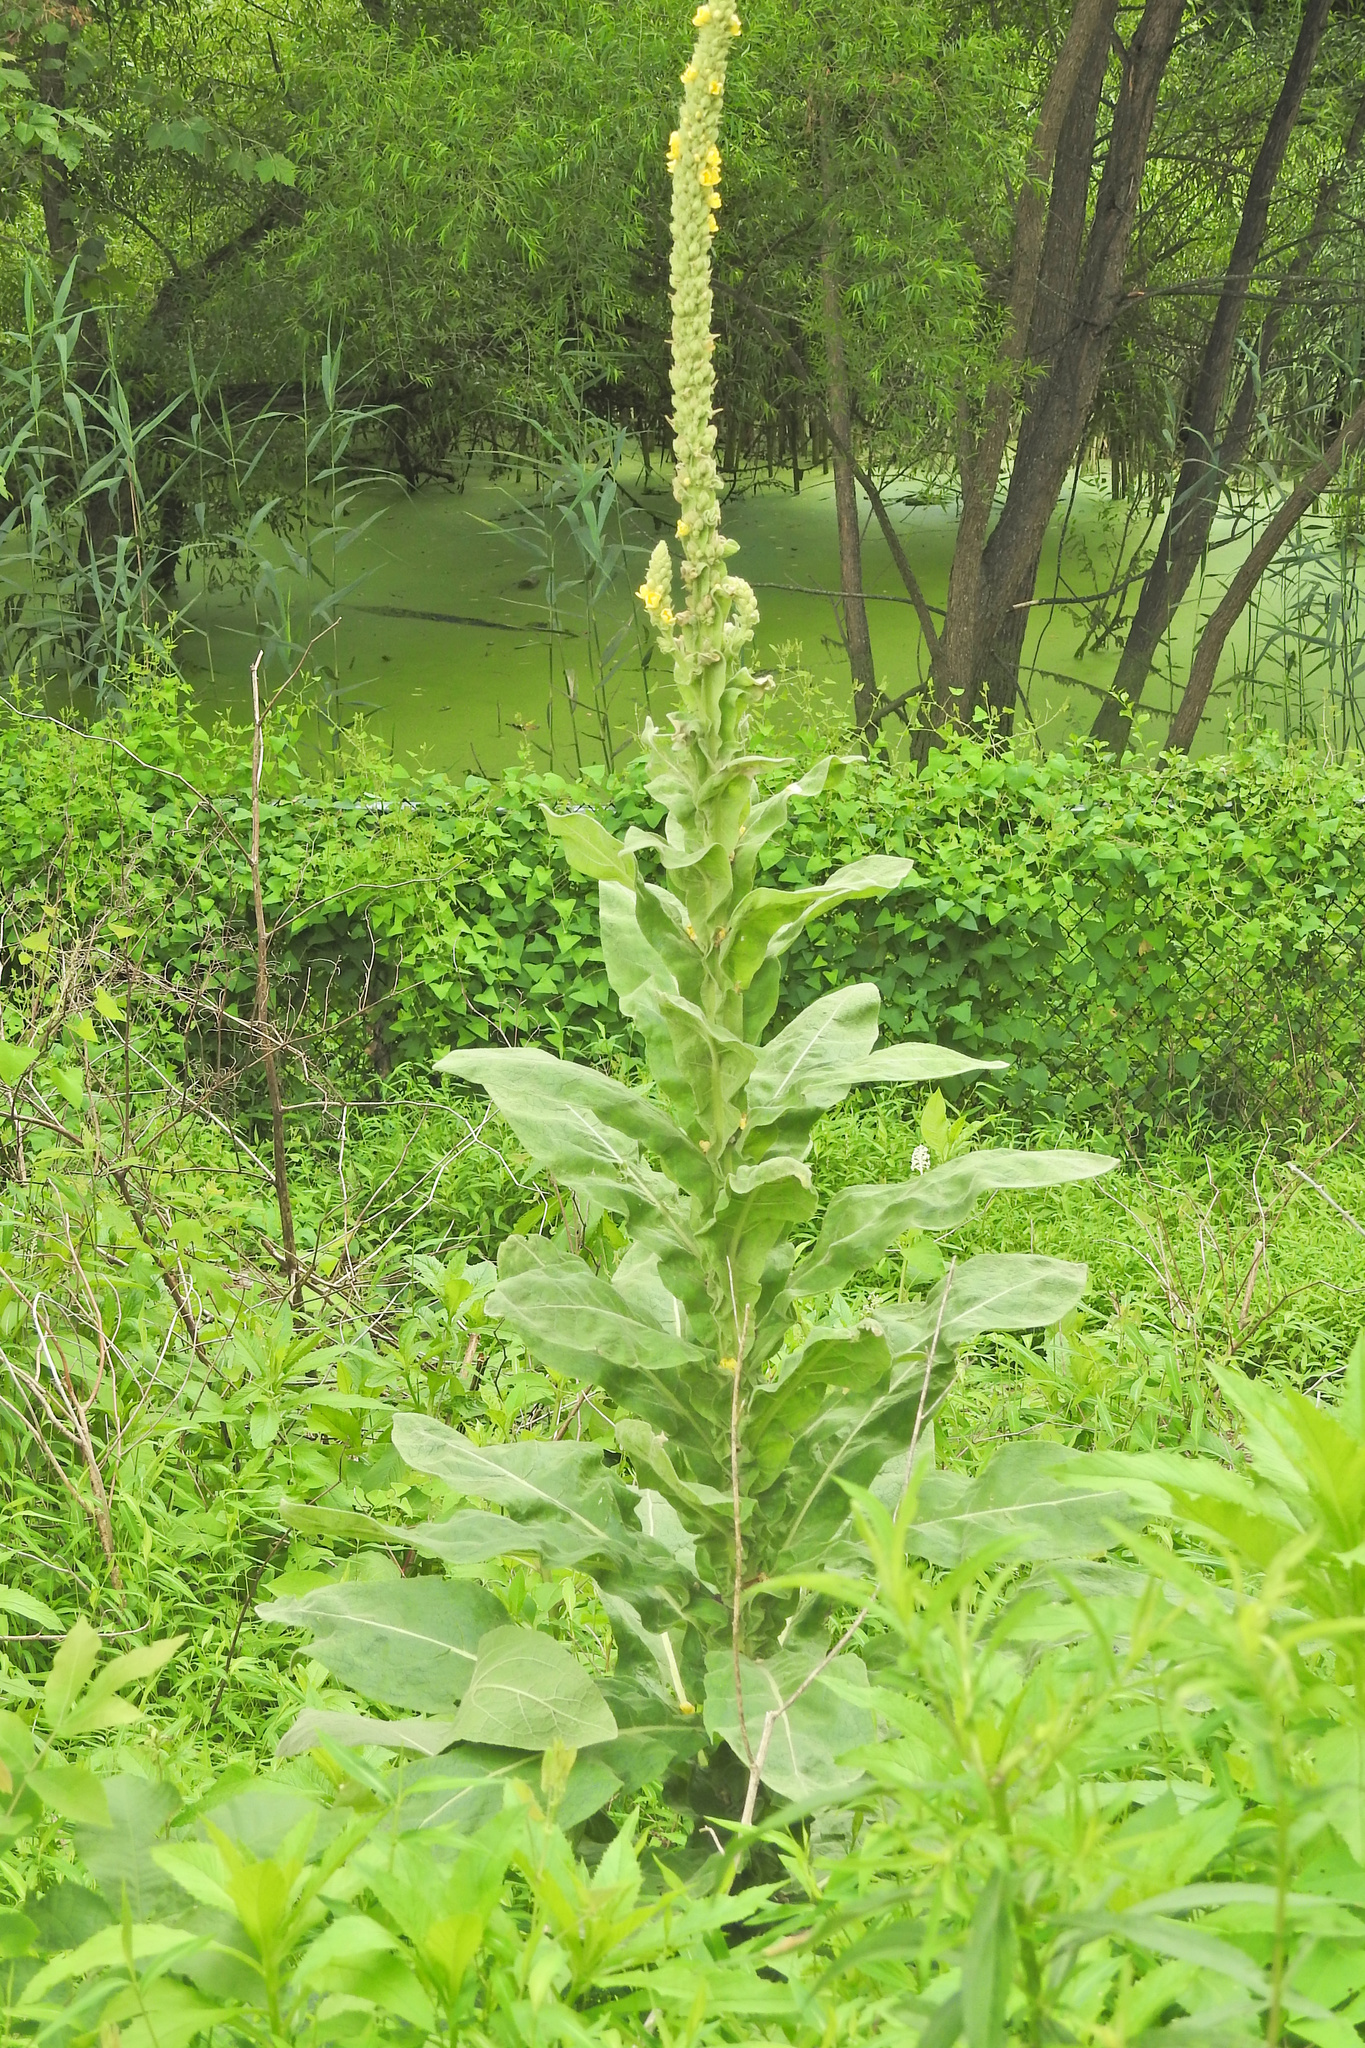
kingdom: Plantae
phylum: Tracheophyta
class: Magnoliopsida
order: Lamiales
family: Scrophulariaceae
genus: Verbascum
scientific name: Verbascum thapsus
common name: Common mullein
